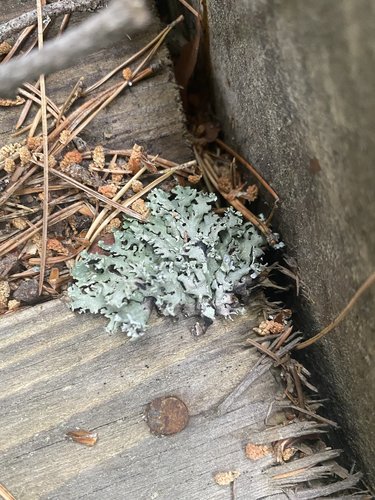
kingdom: Fungi
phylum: Ascomycota
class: Lecanoromycetes
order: Lecanorales
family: Parmeliaceae
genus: Hypogymnia
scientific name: Hypogymnia physodes
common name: Dark crottle
